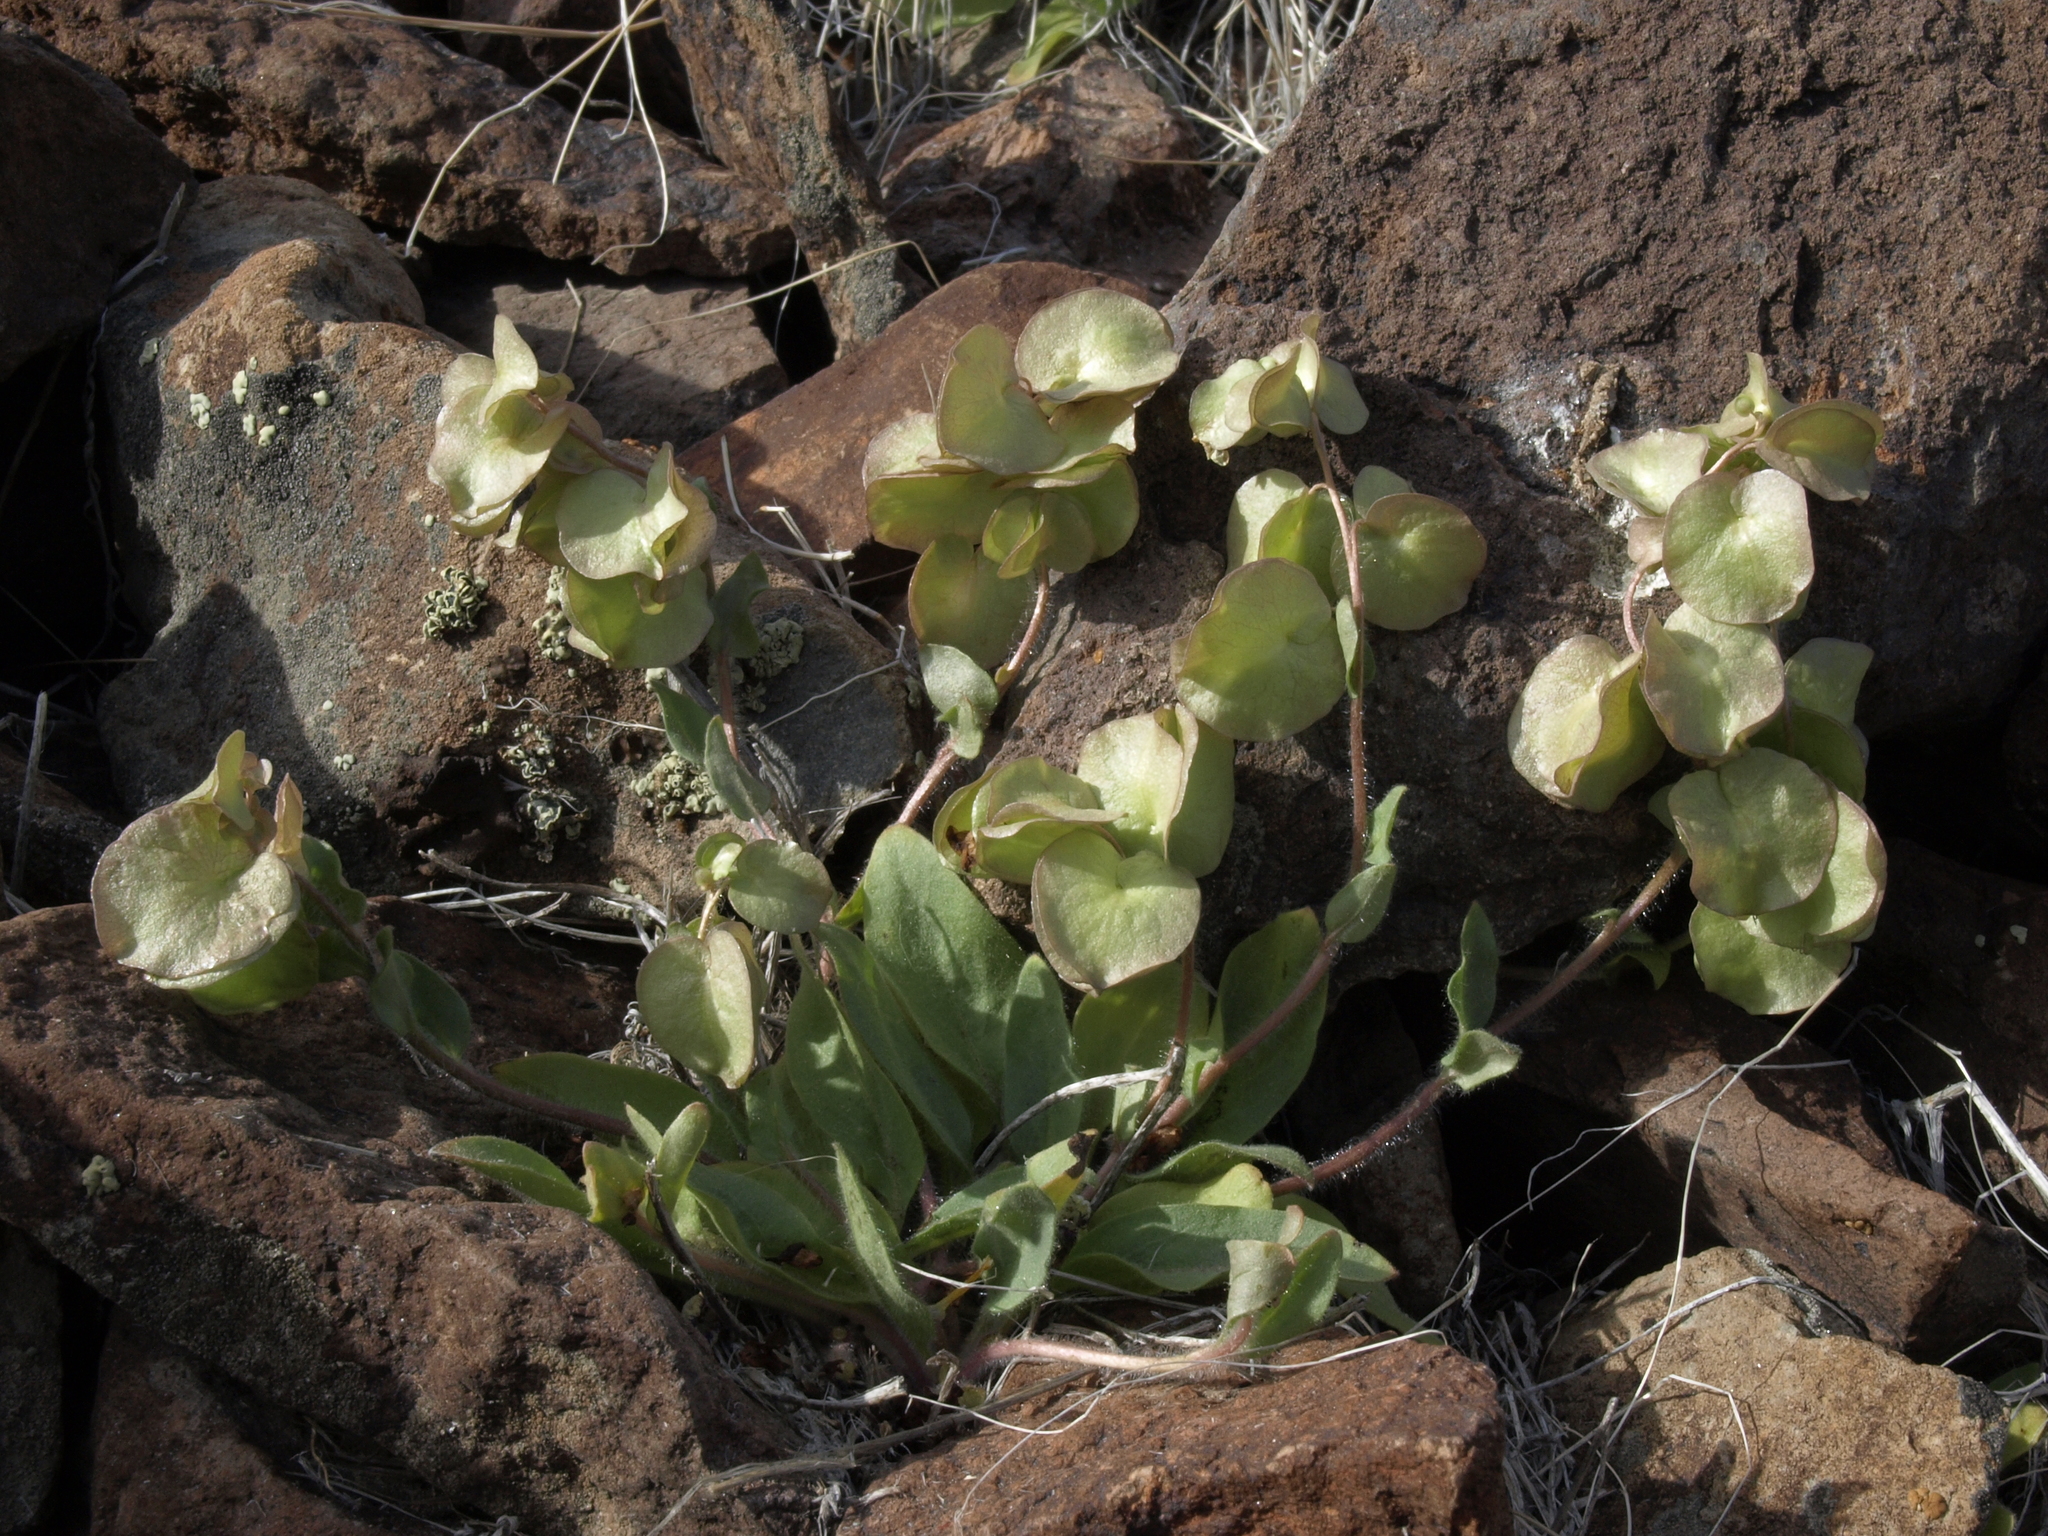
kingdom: Plantae
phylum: Tracheophyta
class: Magnoliopsida
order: Boraginales
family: Hydrophyllaceae
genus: Tricardia
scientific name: Tricardia watsonii
